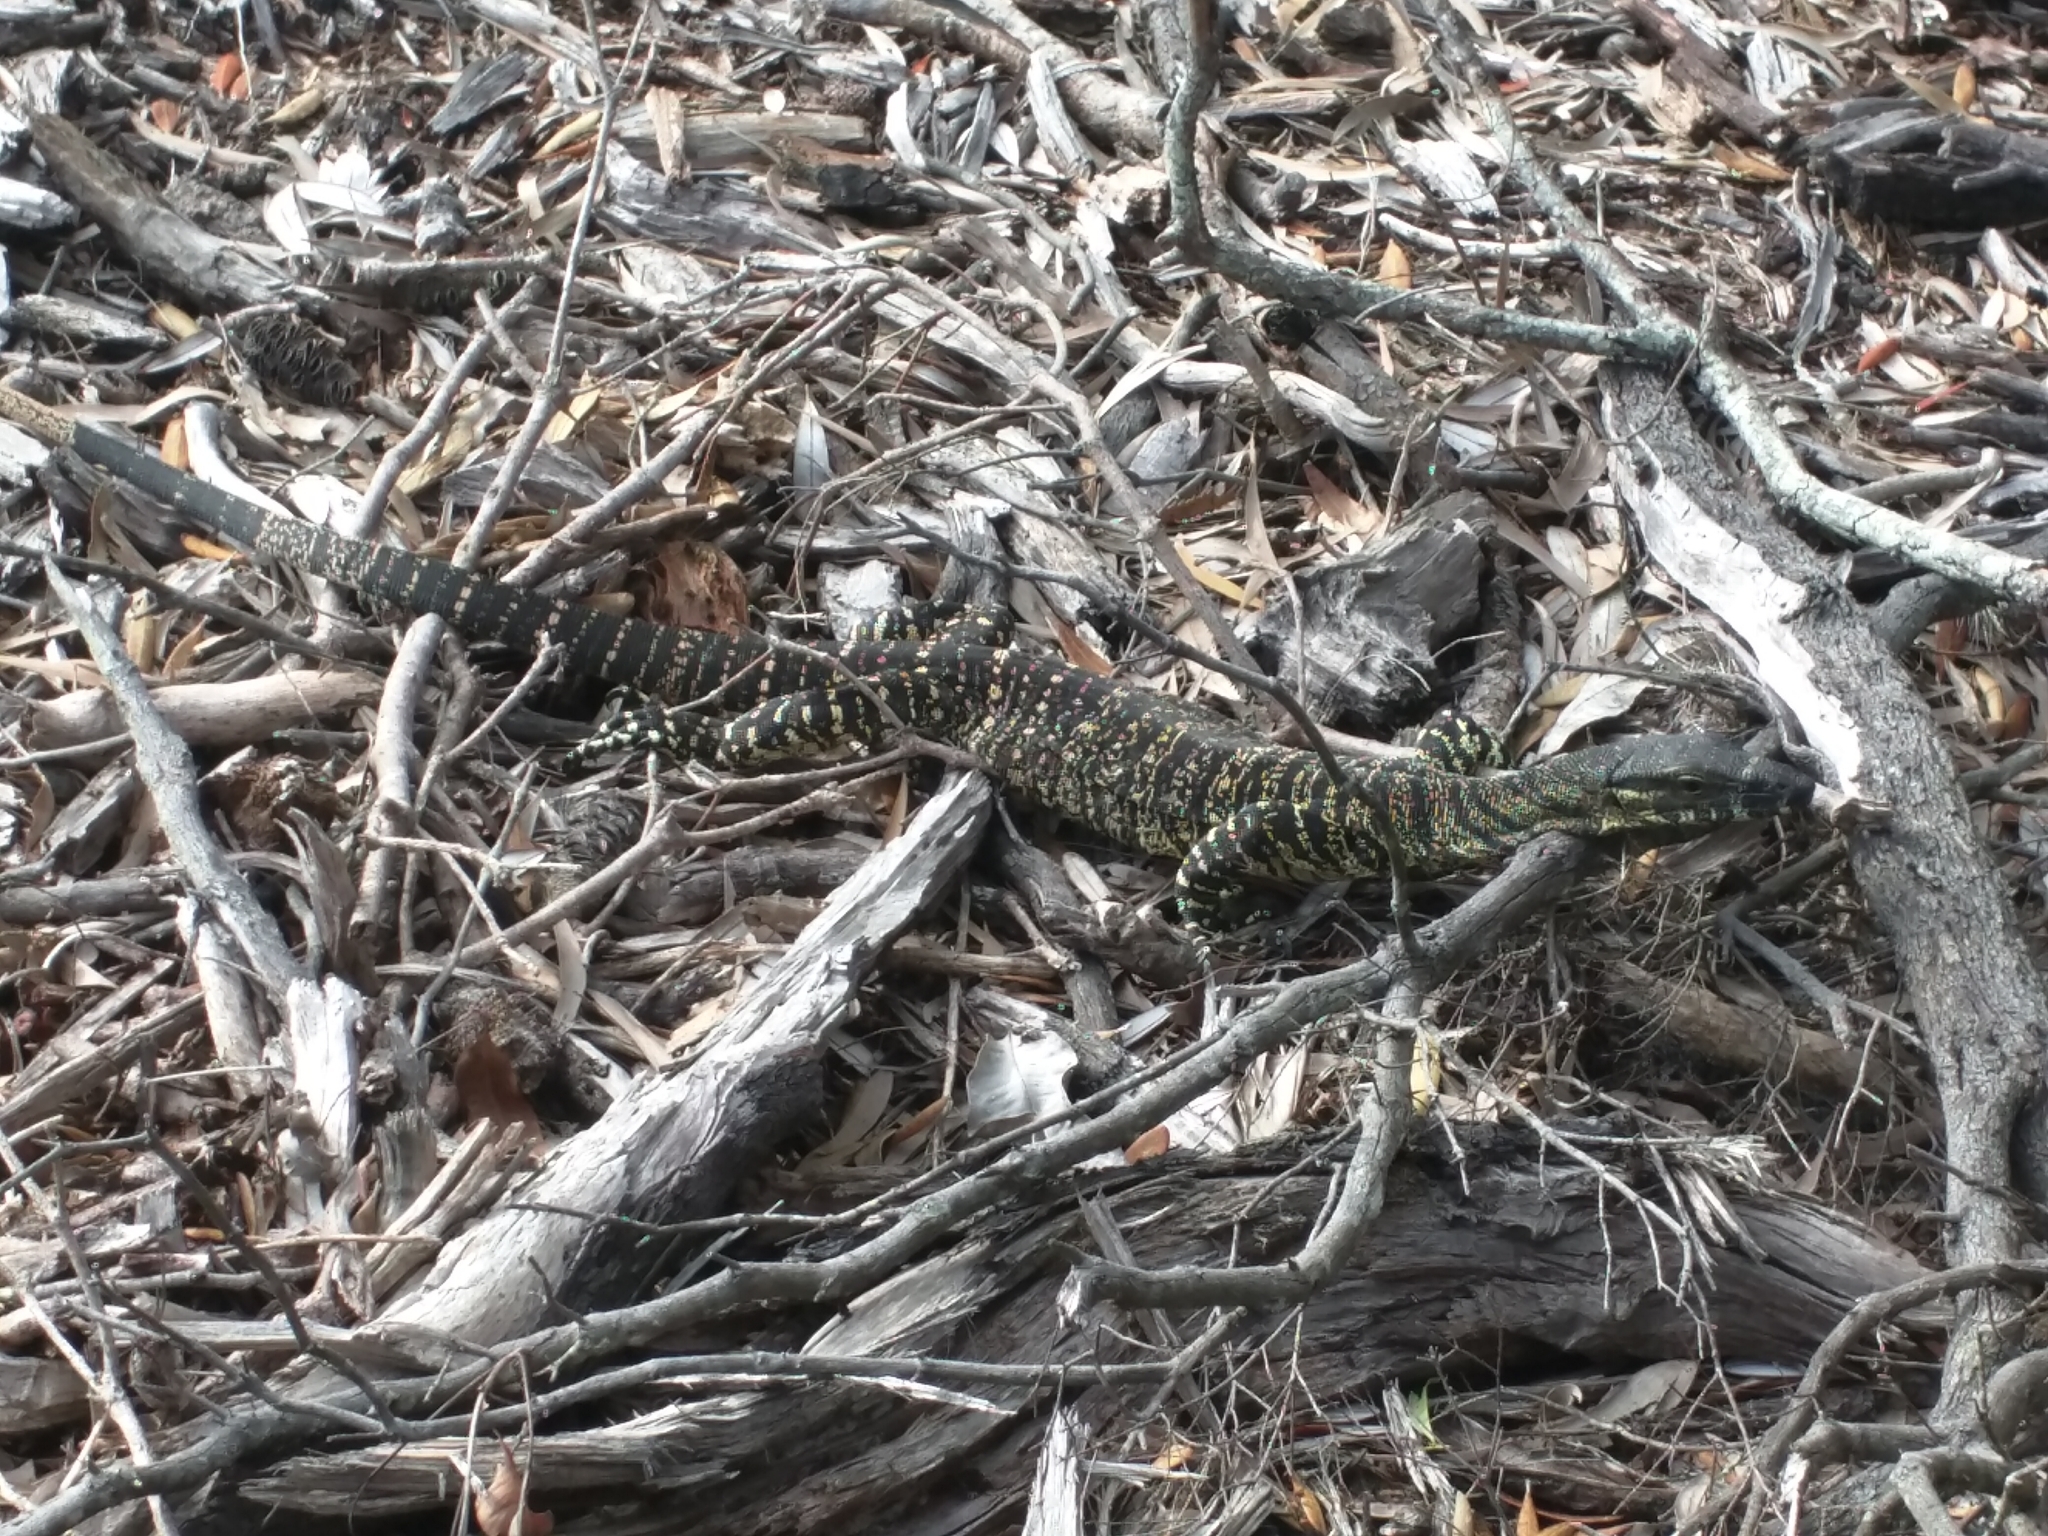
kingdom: Animalia
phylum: Chordata
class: Squamata
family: Varanidae
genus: Varanus
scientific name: Varanus varius
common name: Lace monitor
